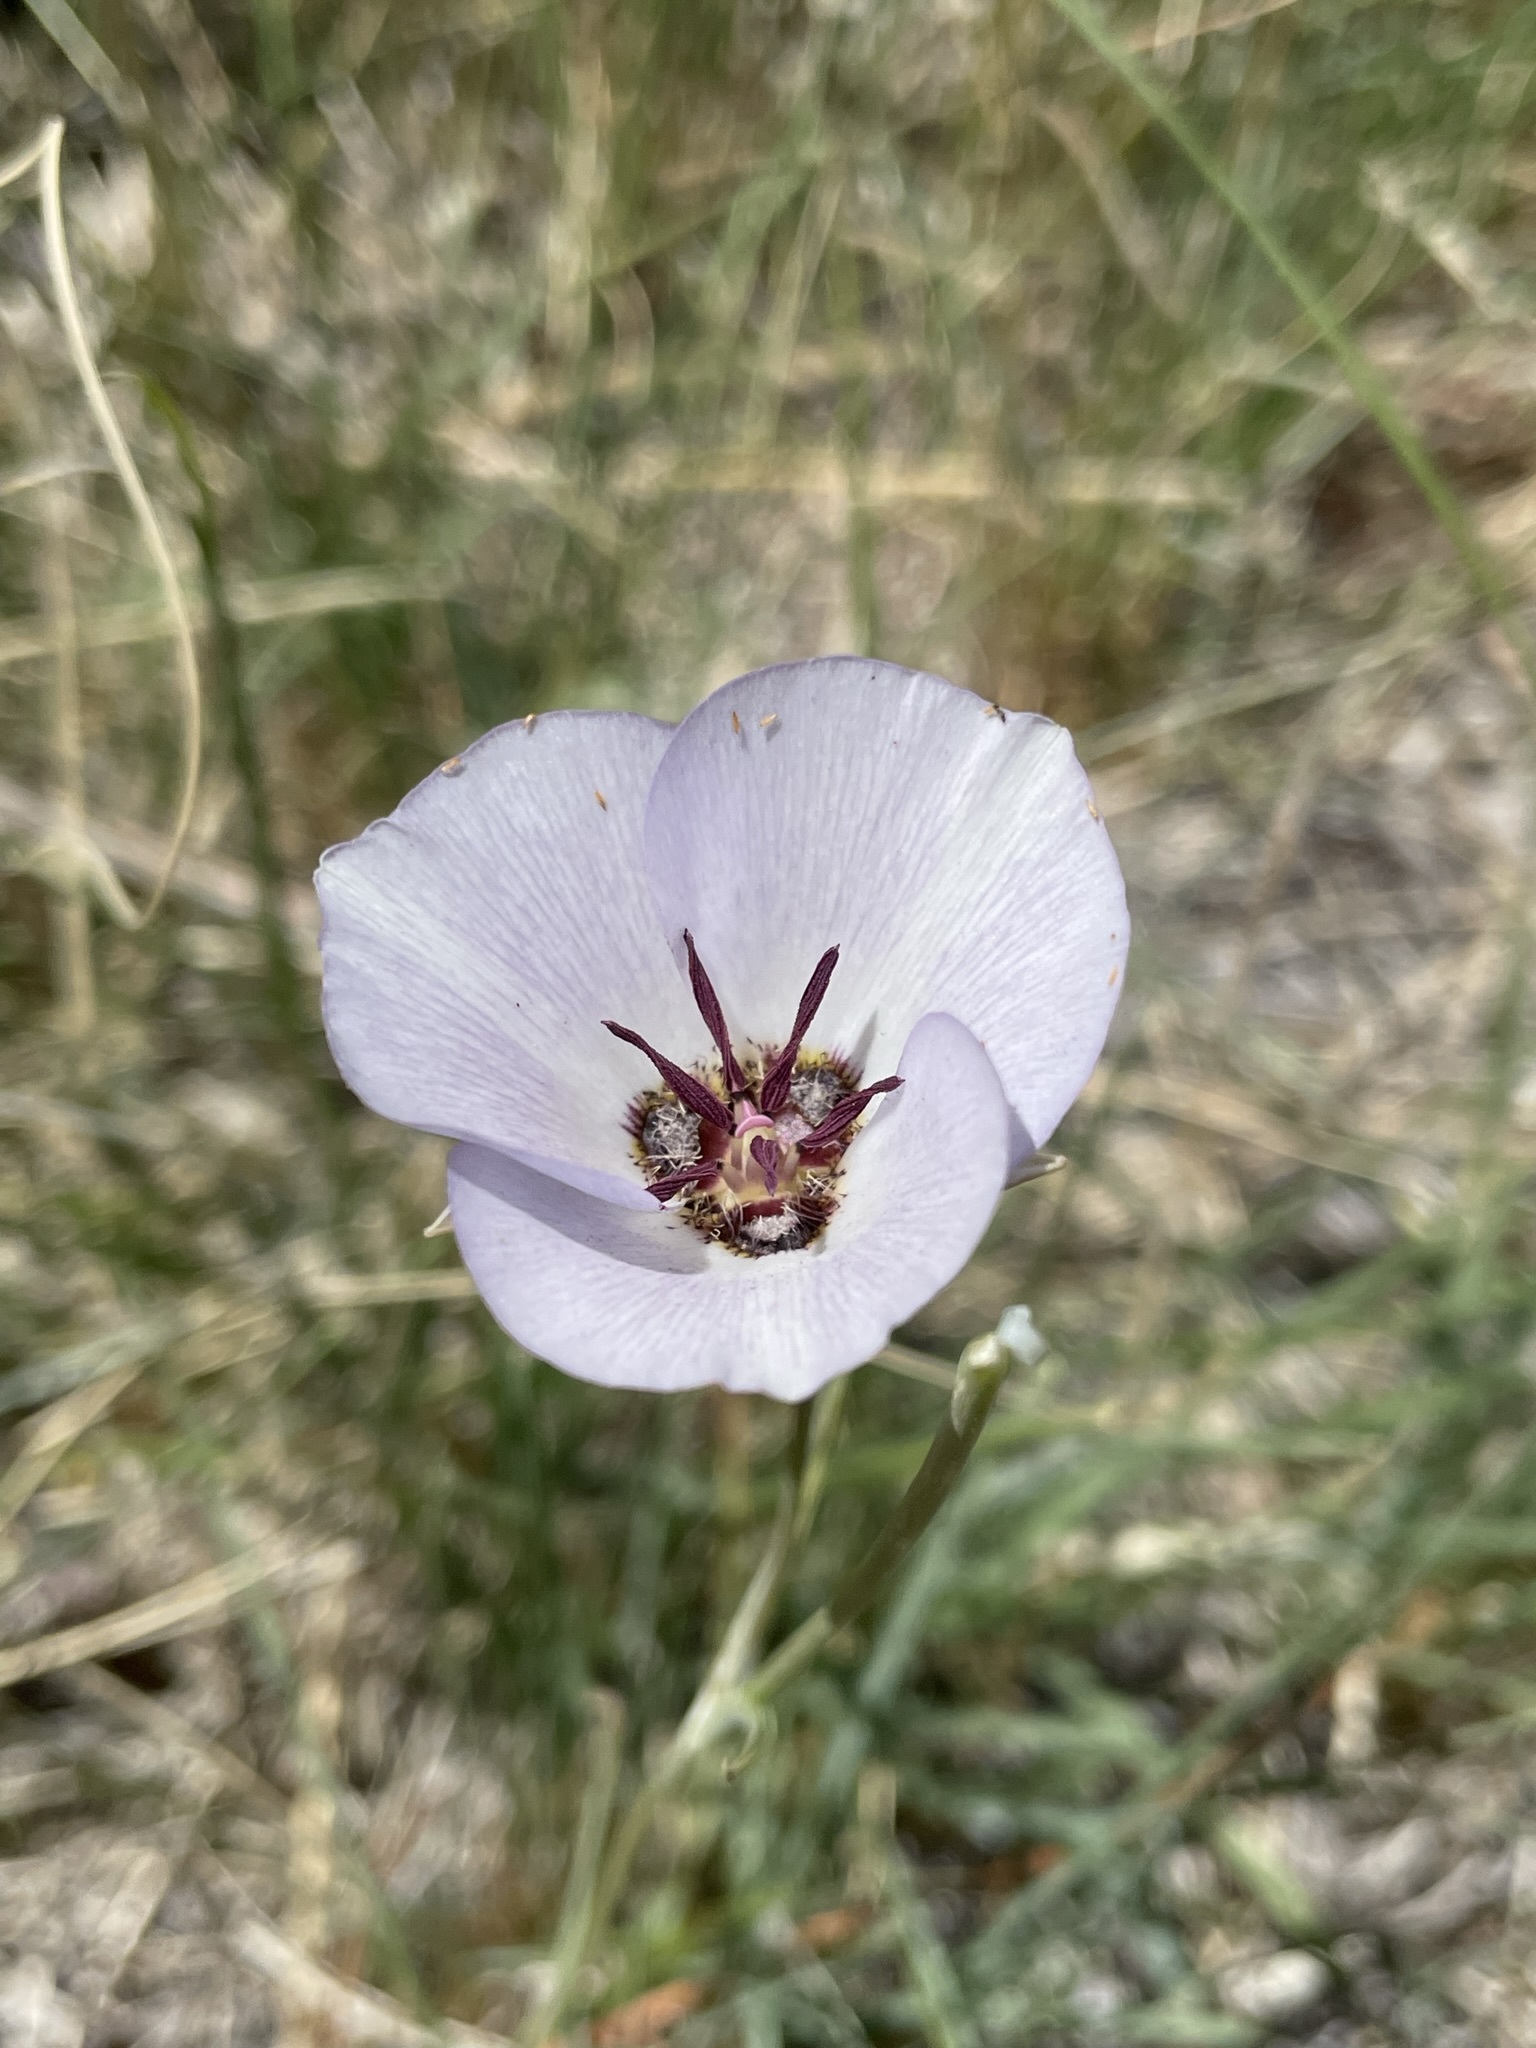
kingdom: Plantae
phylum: Tracheophyta
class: Liliopsida
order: Liliales
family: Liliaceae
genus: Calochortus
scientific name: Calochortus excavatus
